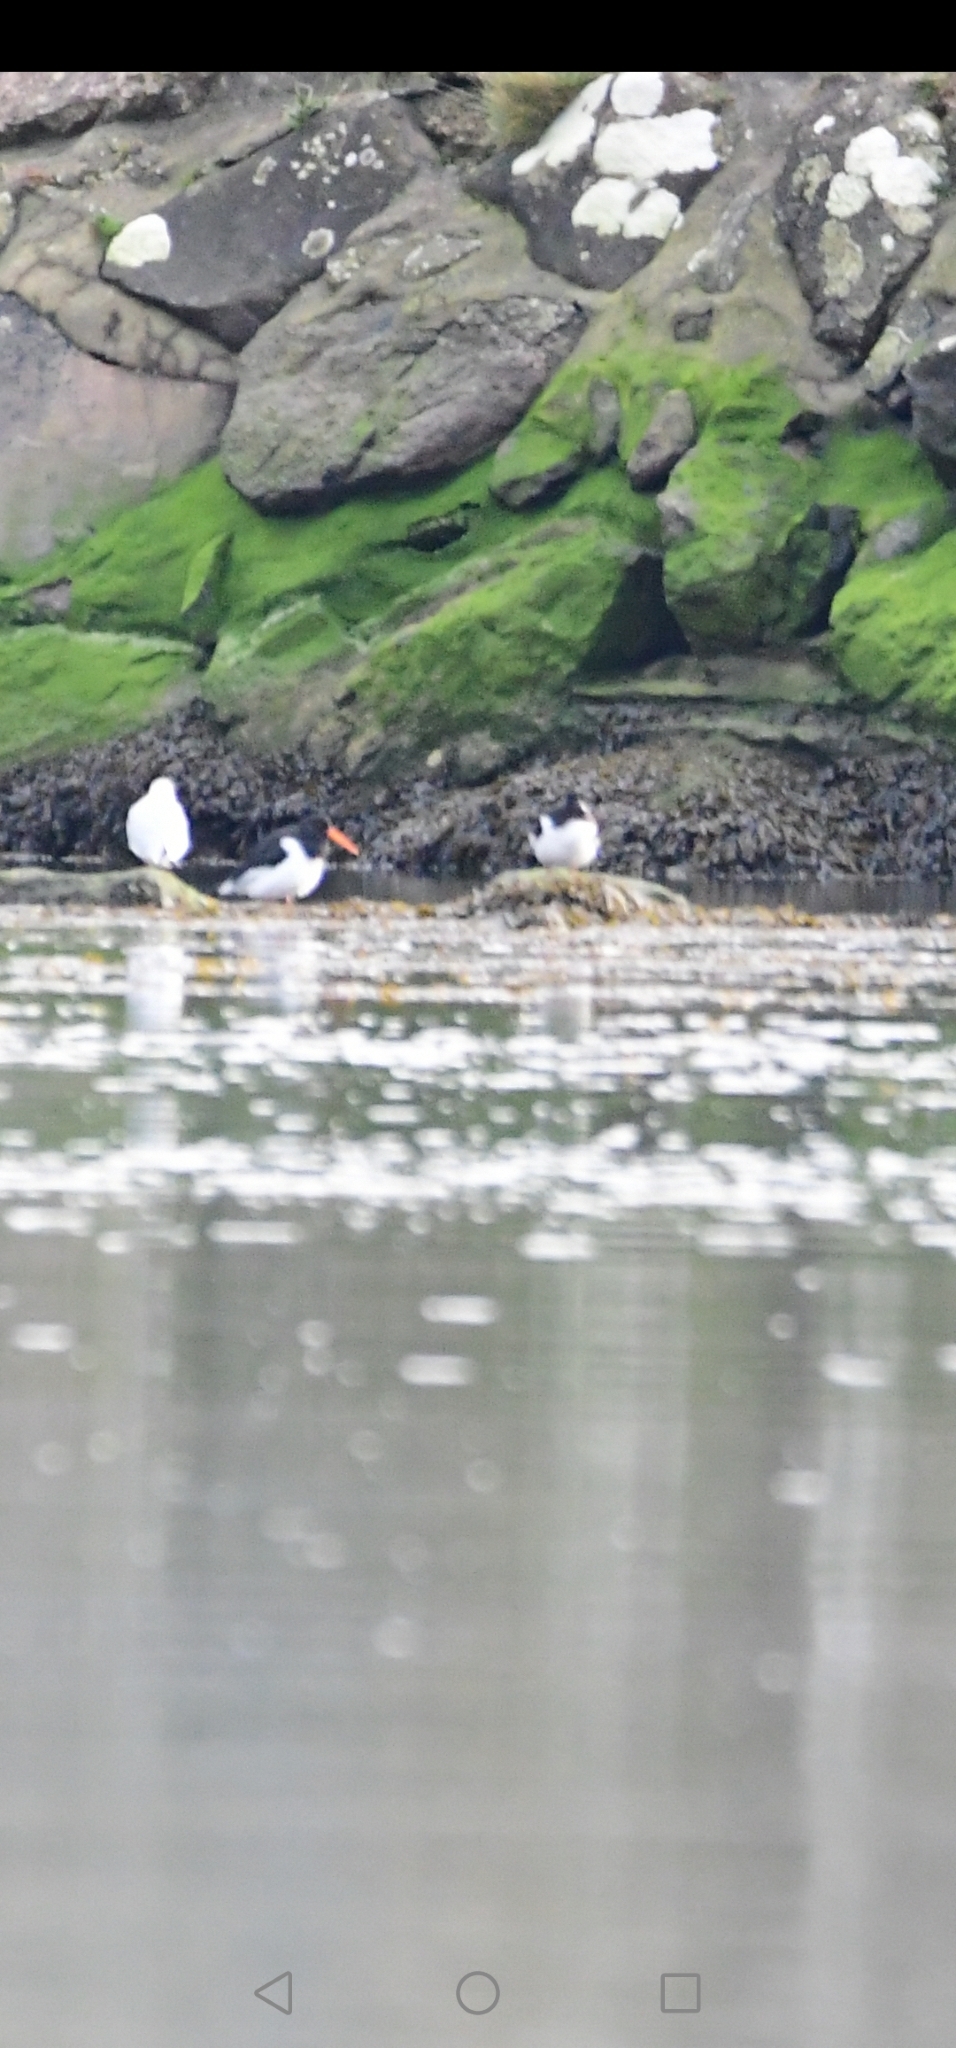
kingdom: Animalia
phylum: Chordata
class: Aves
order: Charadriiformes
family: Haematopodidae
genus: Haematopus
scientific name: Haematopus ostralegus
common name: Eurasian oystercatcher
